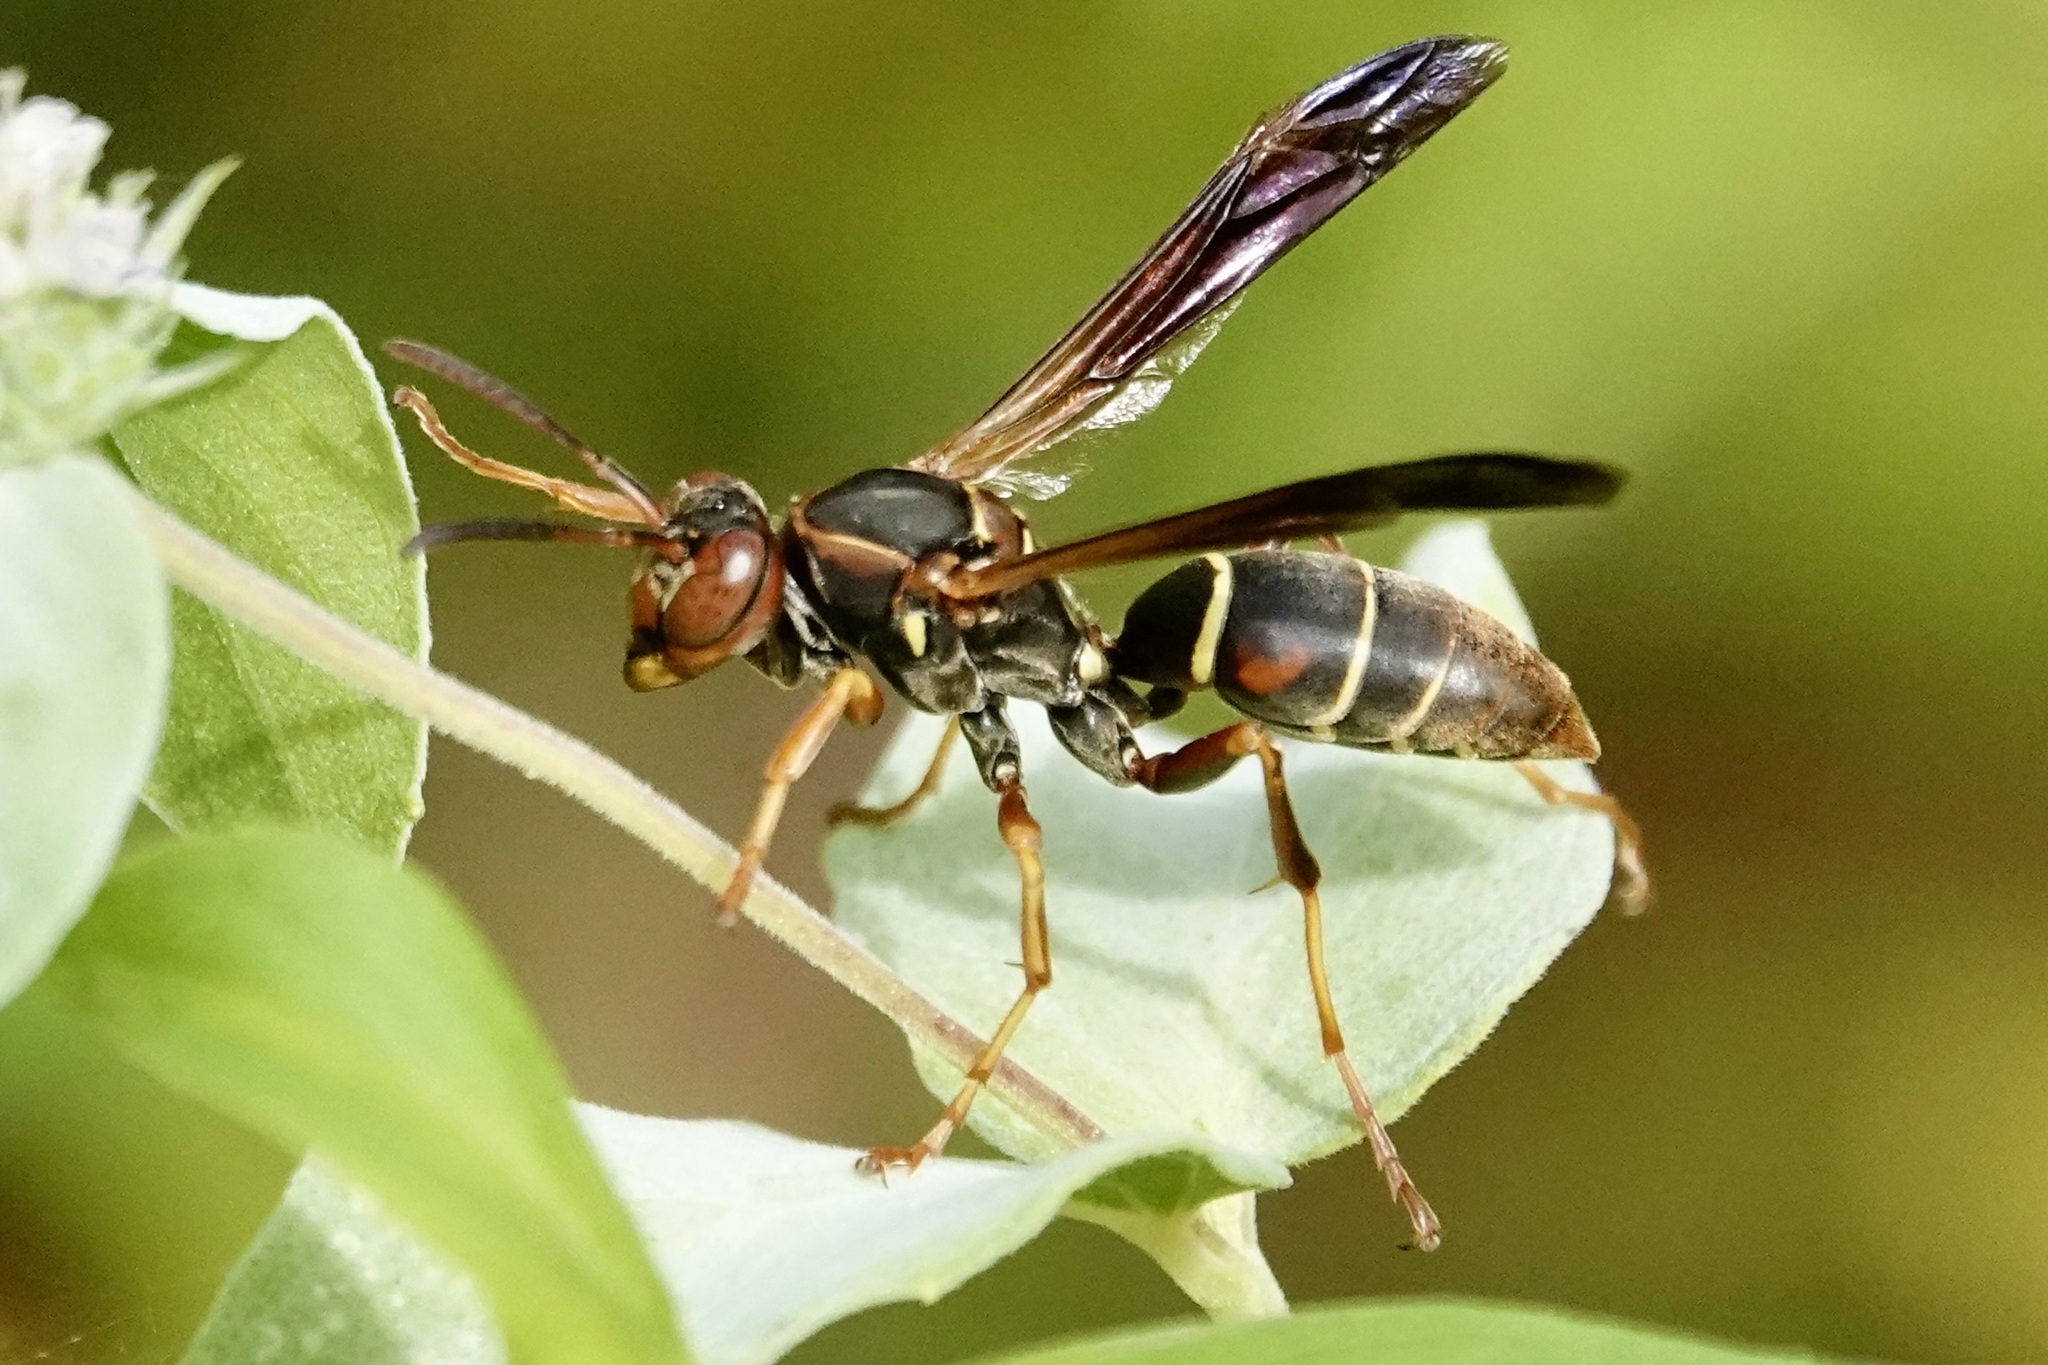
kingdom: Animalia
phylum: Arthropoda
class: Insecta
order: Hymenoptera
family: Eumenidae
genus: Polistes
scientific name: Polistes fuscatus
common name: Dark paper wasp
